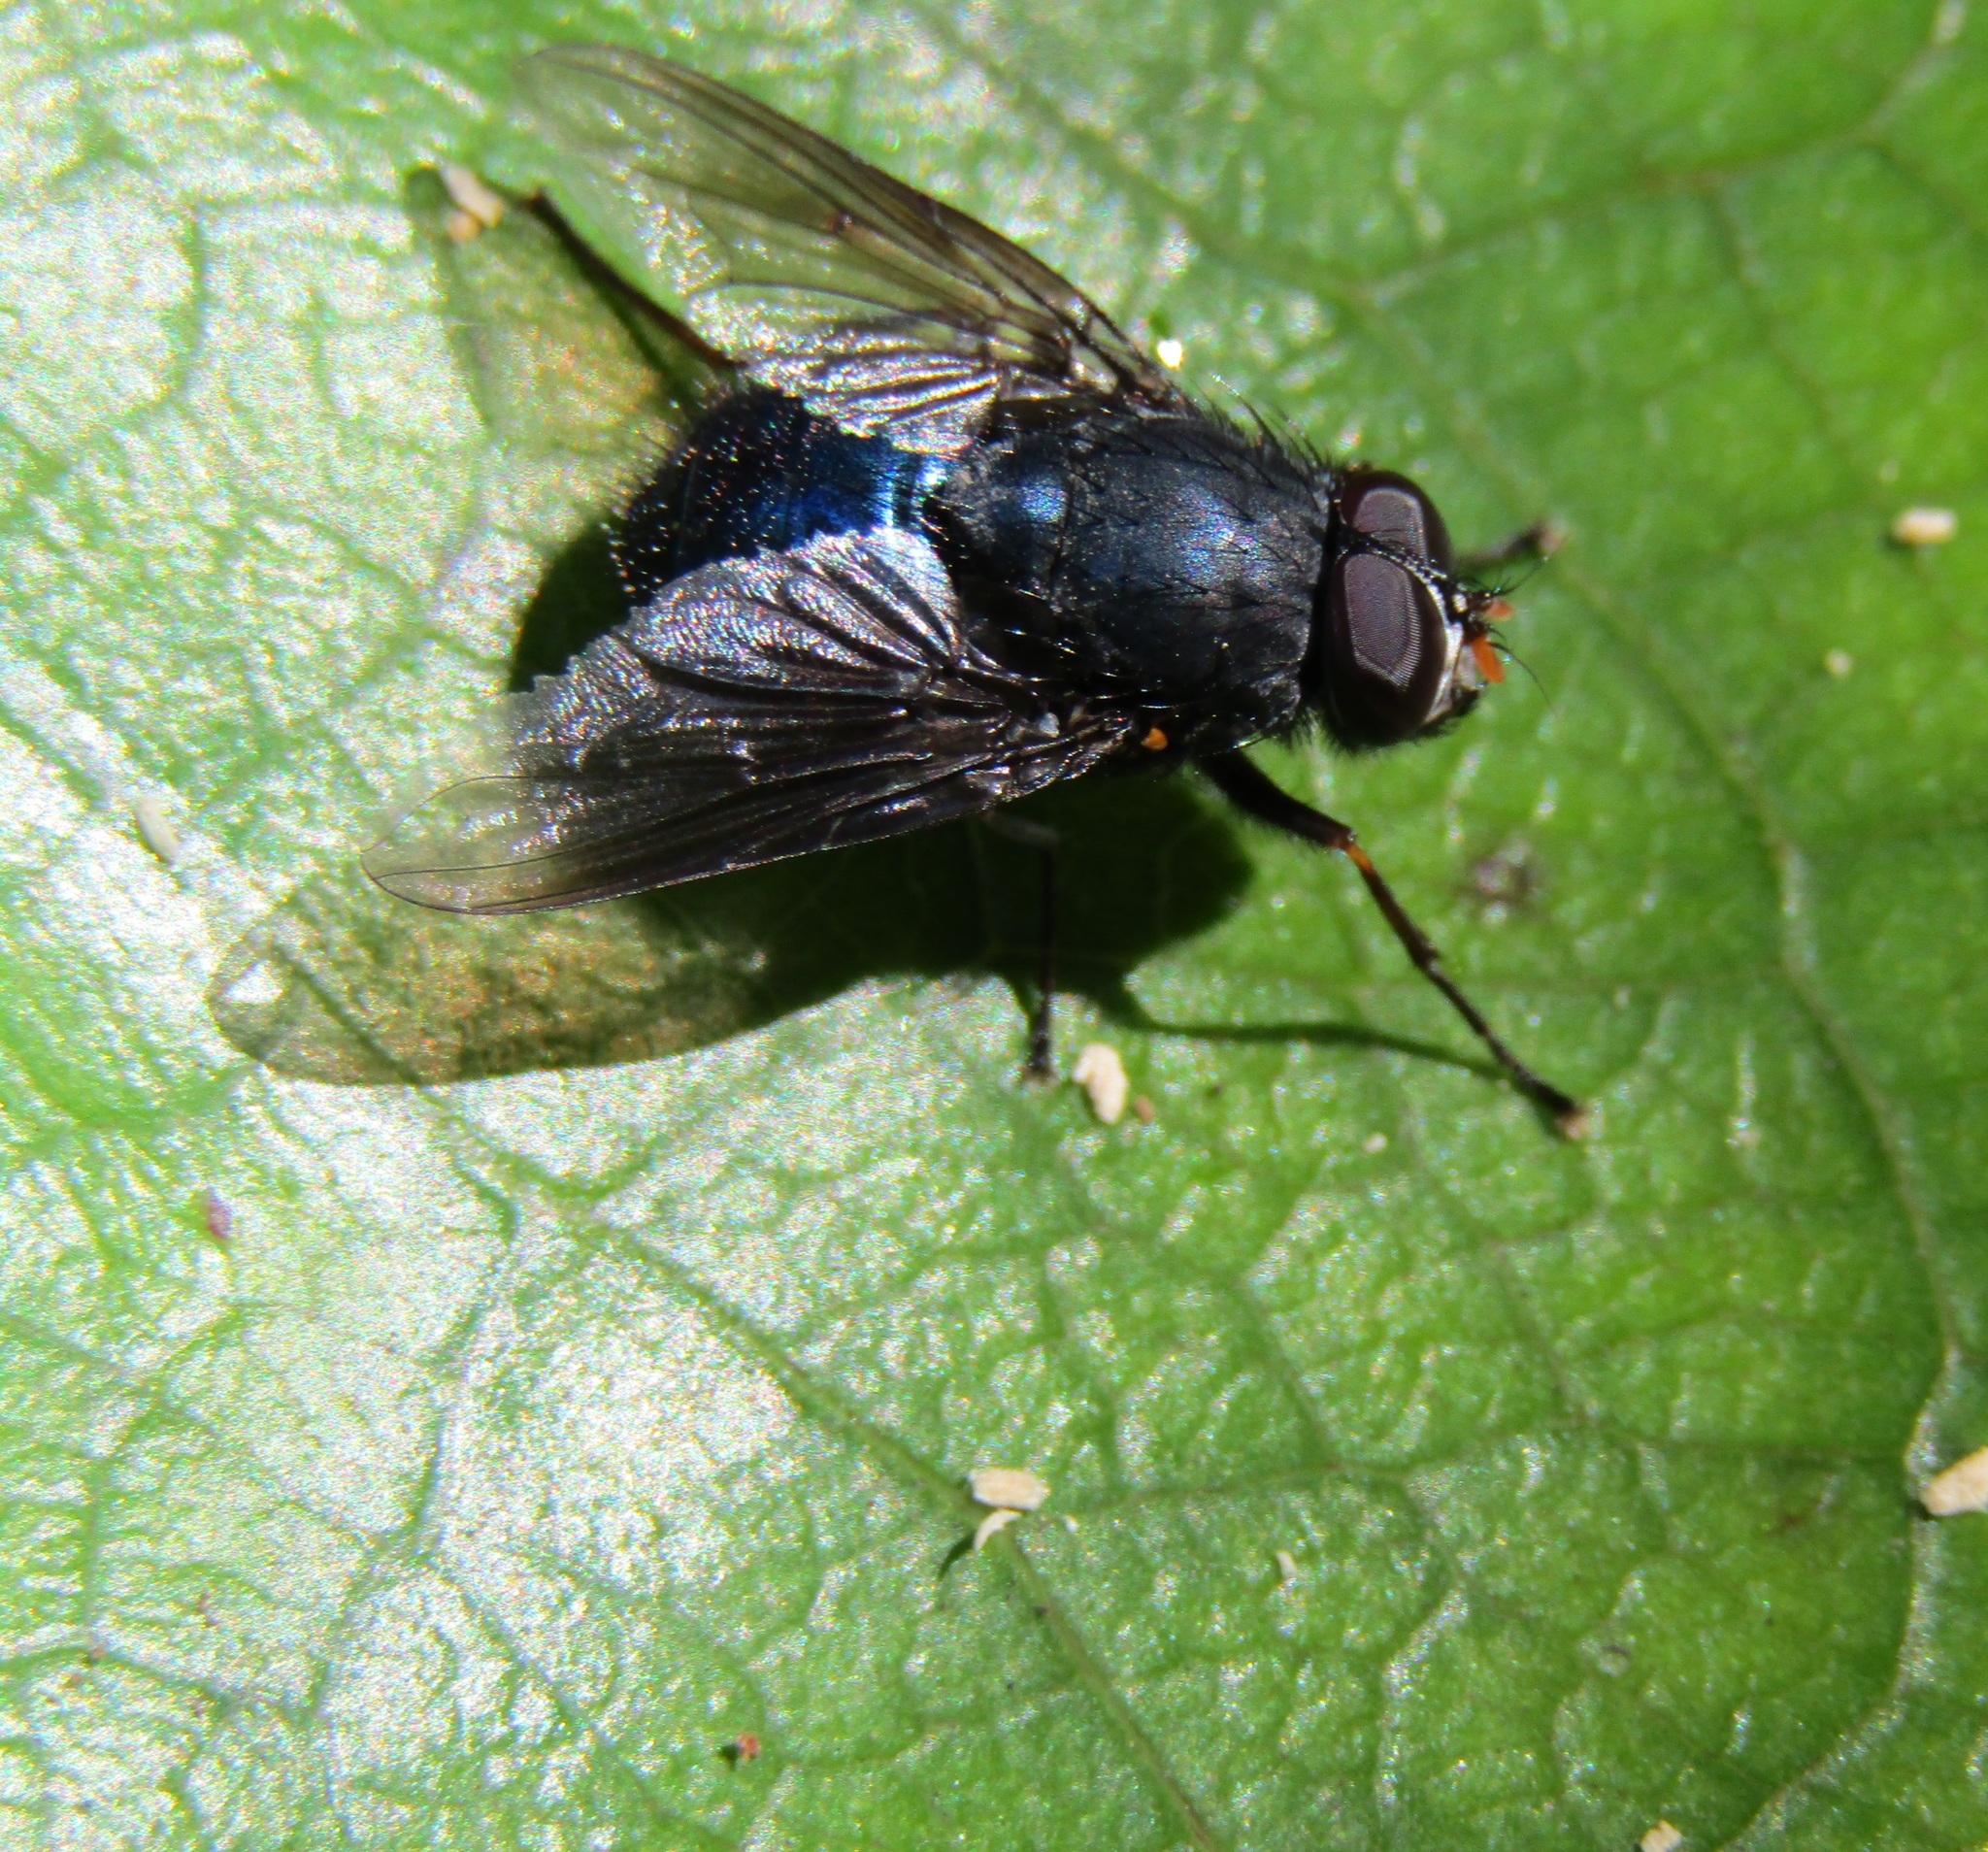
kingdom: Animalia
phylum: Arthropoda
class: Insecta
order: Diptera
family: Muscidae
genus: Calliphoroides
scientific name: Calliphoroides antennatis
